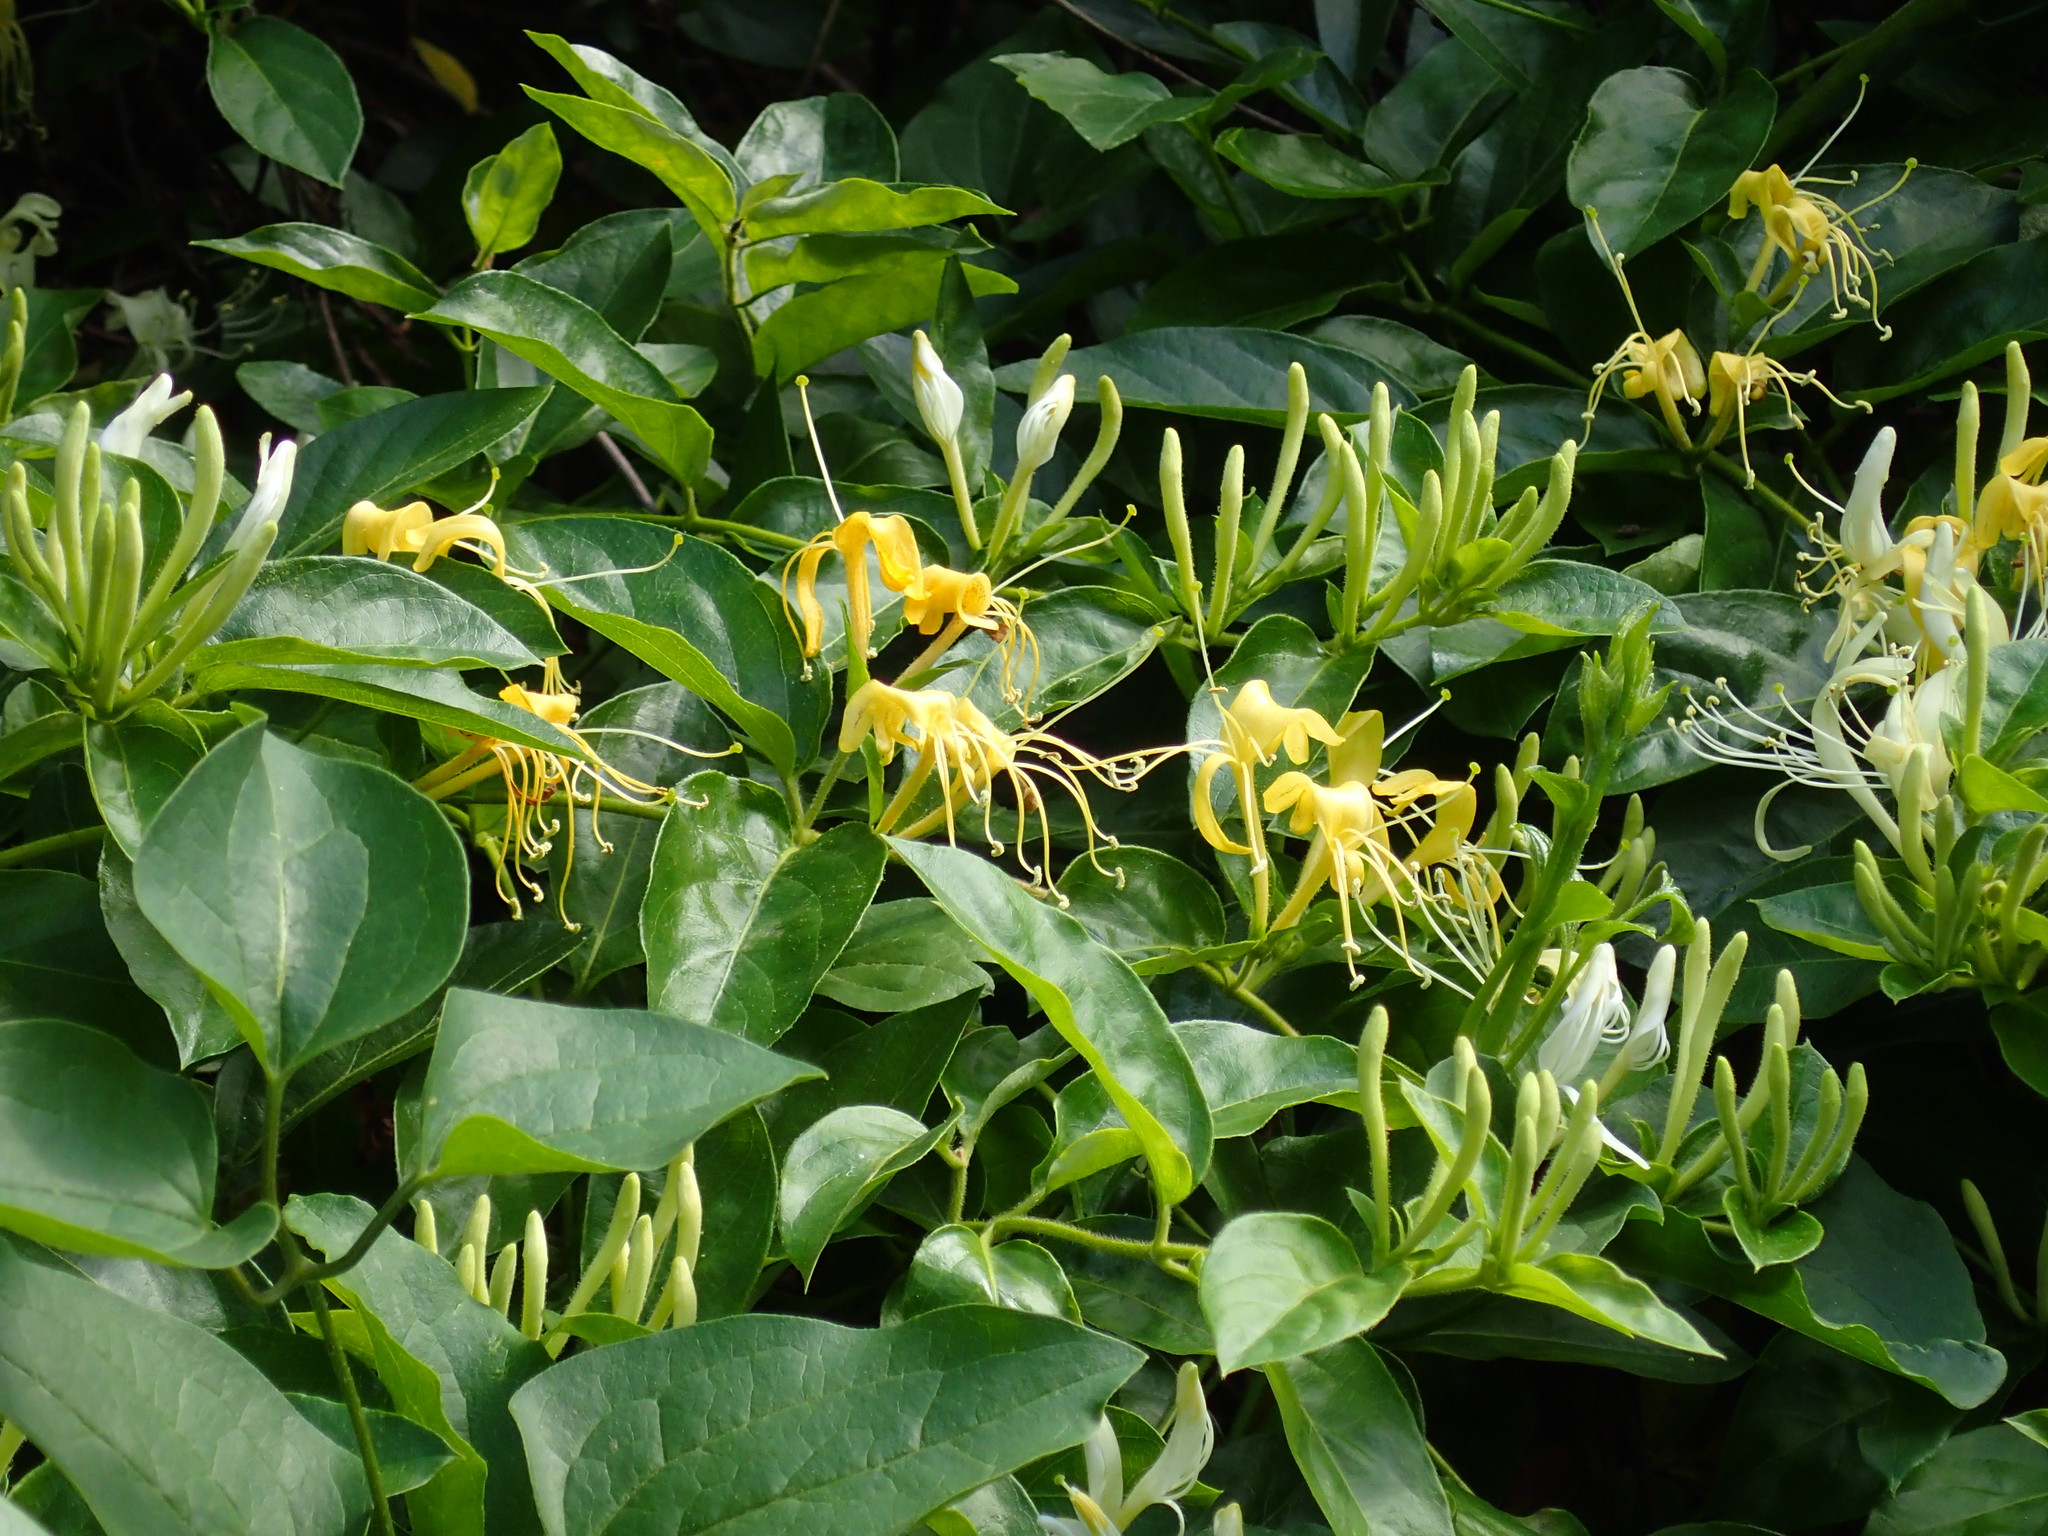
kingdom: Plantae
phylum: Tracheophyta
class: Magnoliopsida
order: Dipsacales
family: Caprifoliaceae
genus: Lonicera
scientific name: Lonicera japonica
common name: Japanese honeysuckle
